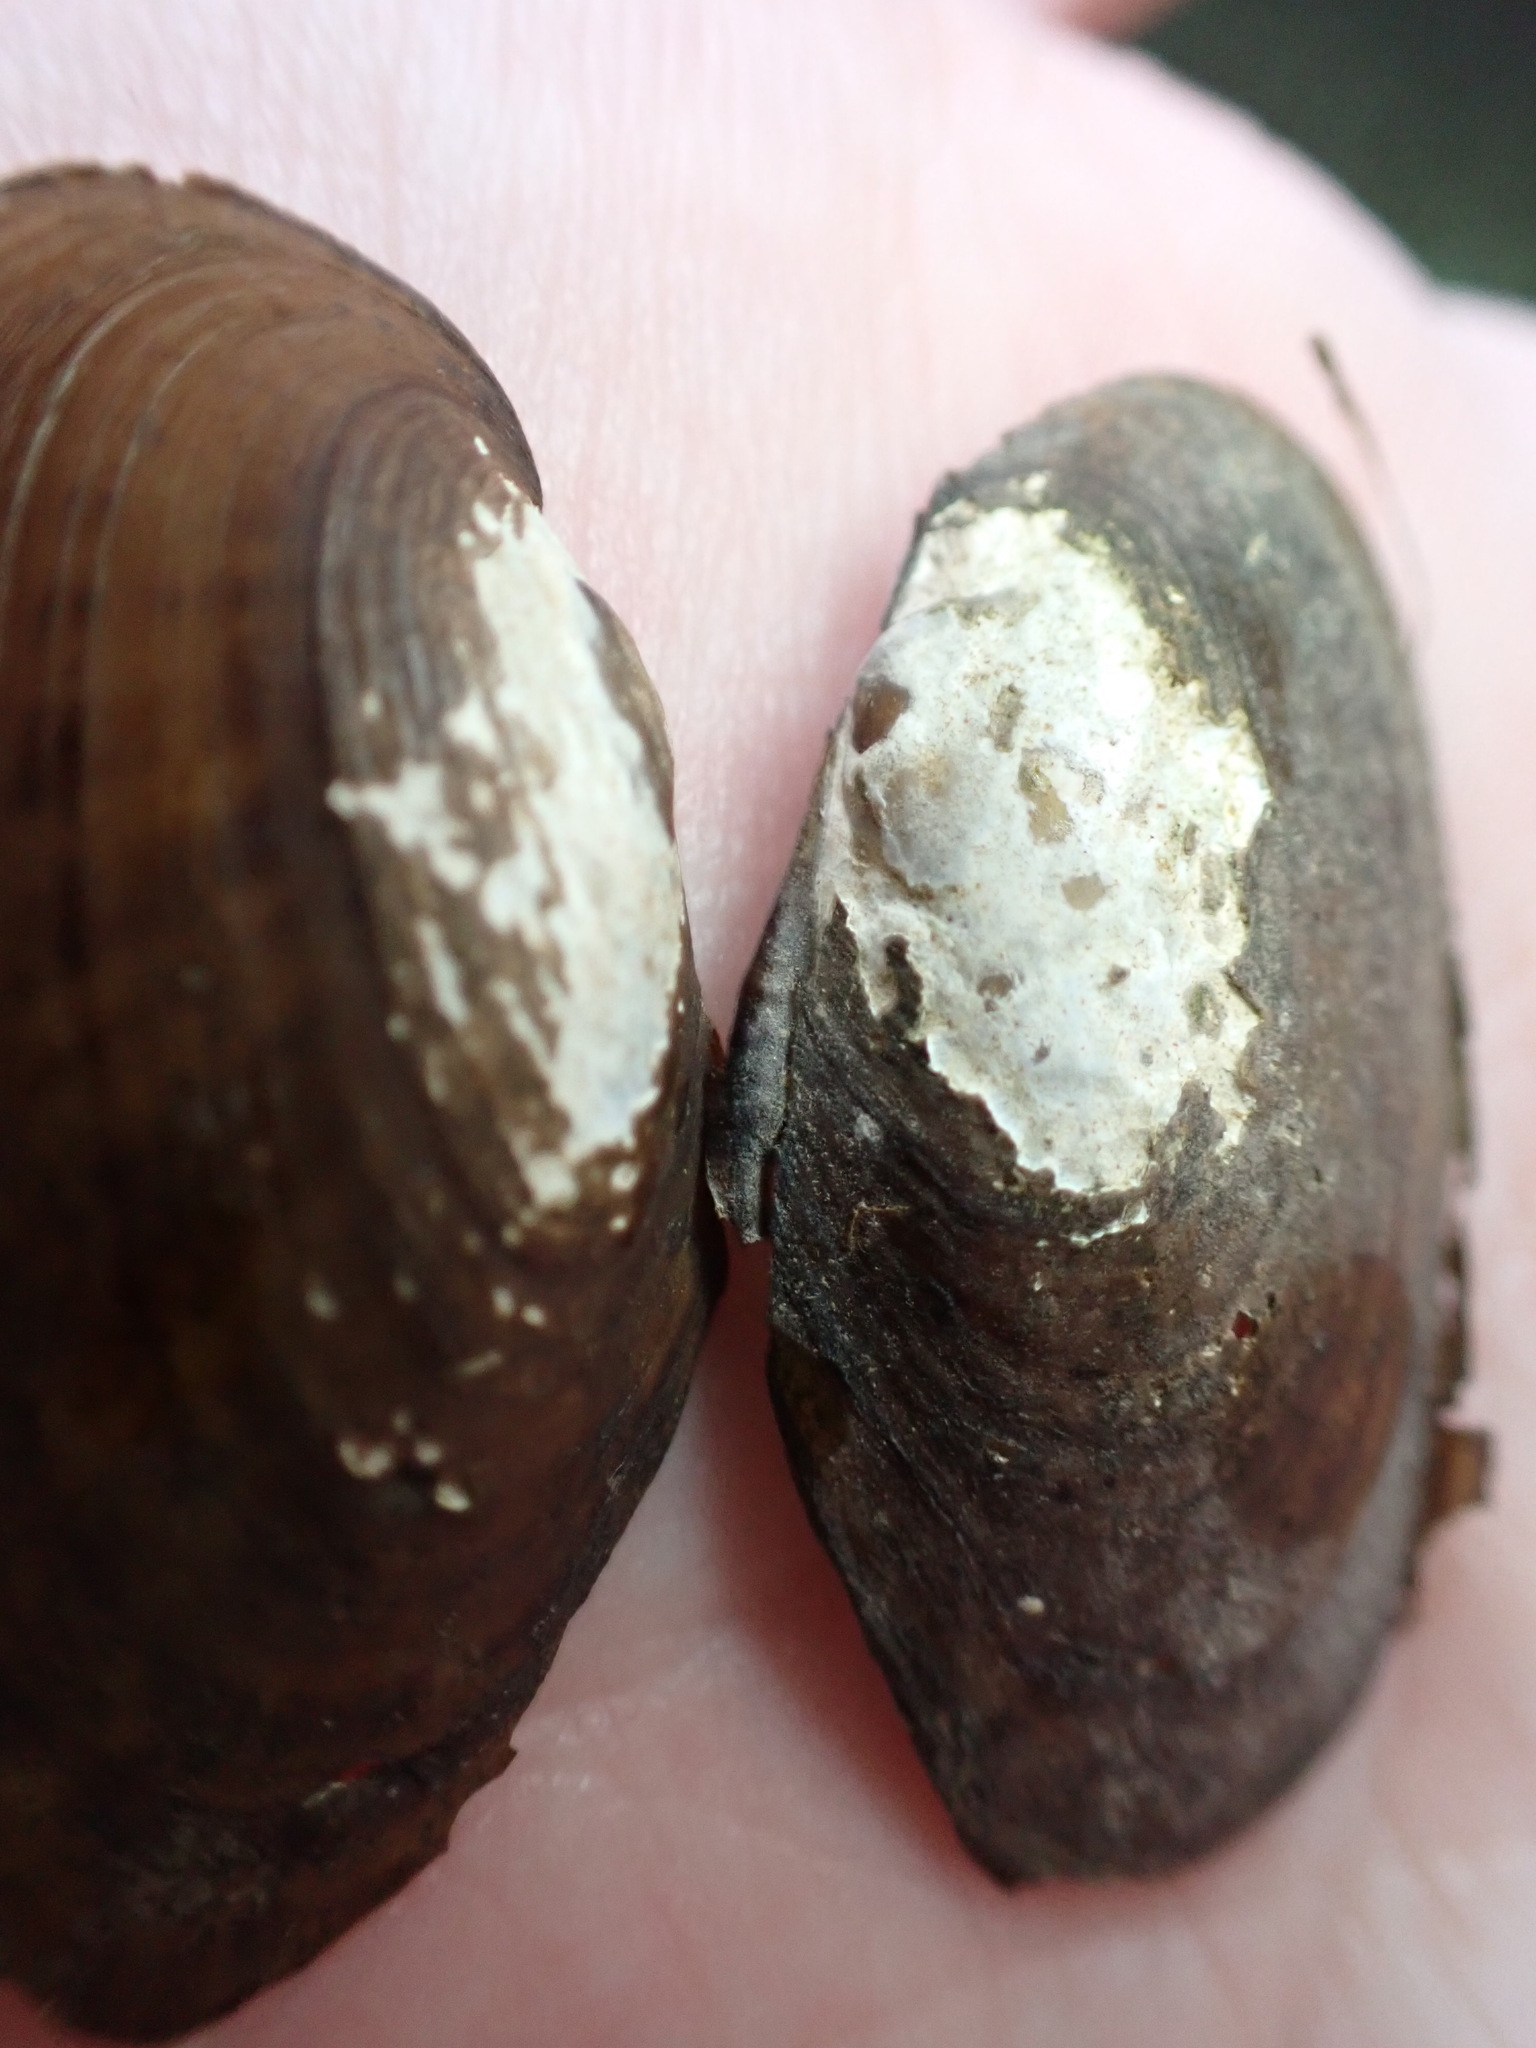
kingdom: Animalia
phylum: Mollusca
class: Bivalvia
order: Unionida
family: Unionidae
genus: Cambarunio
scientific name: Cambarunio iris
